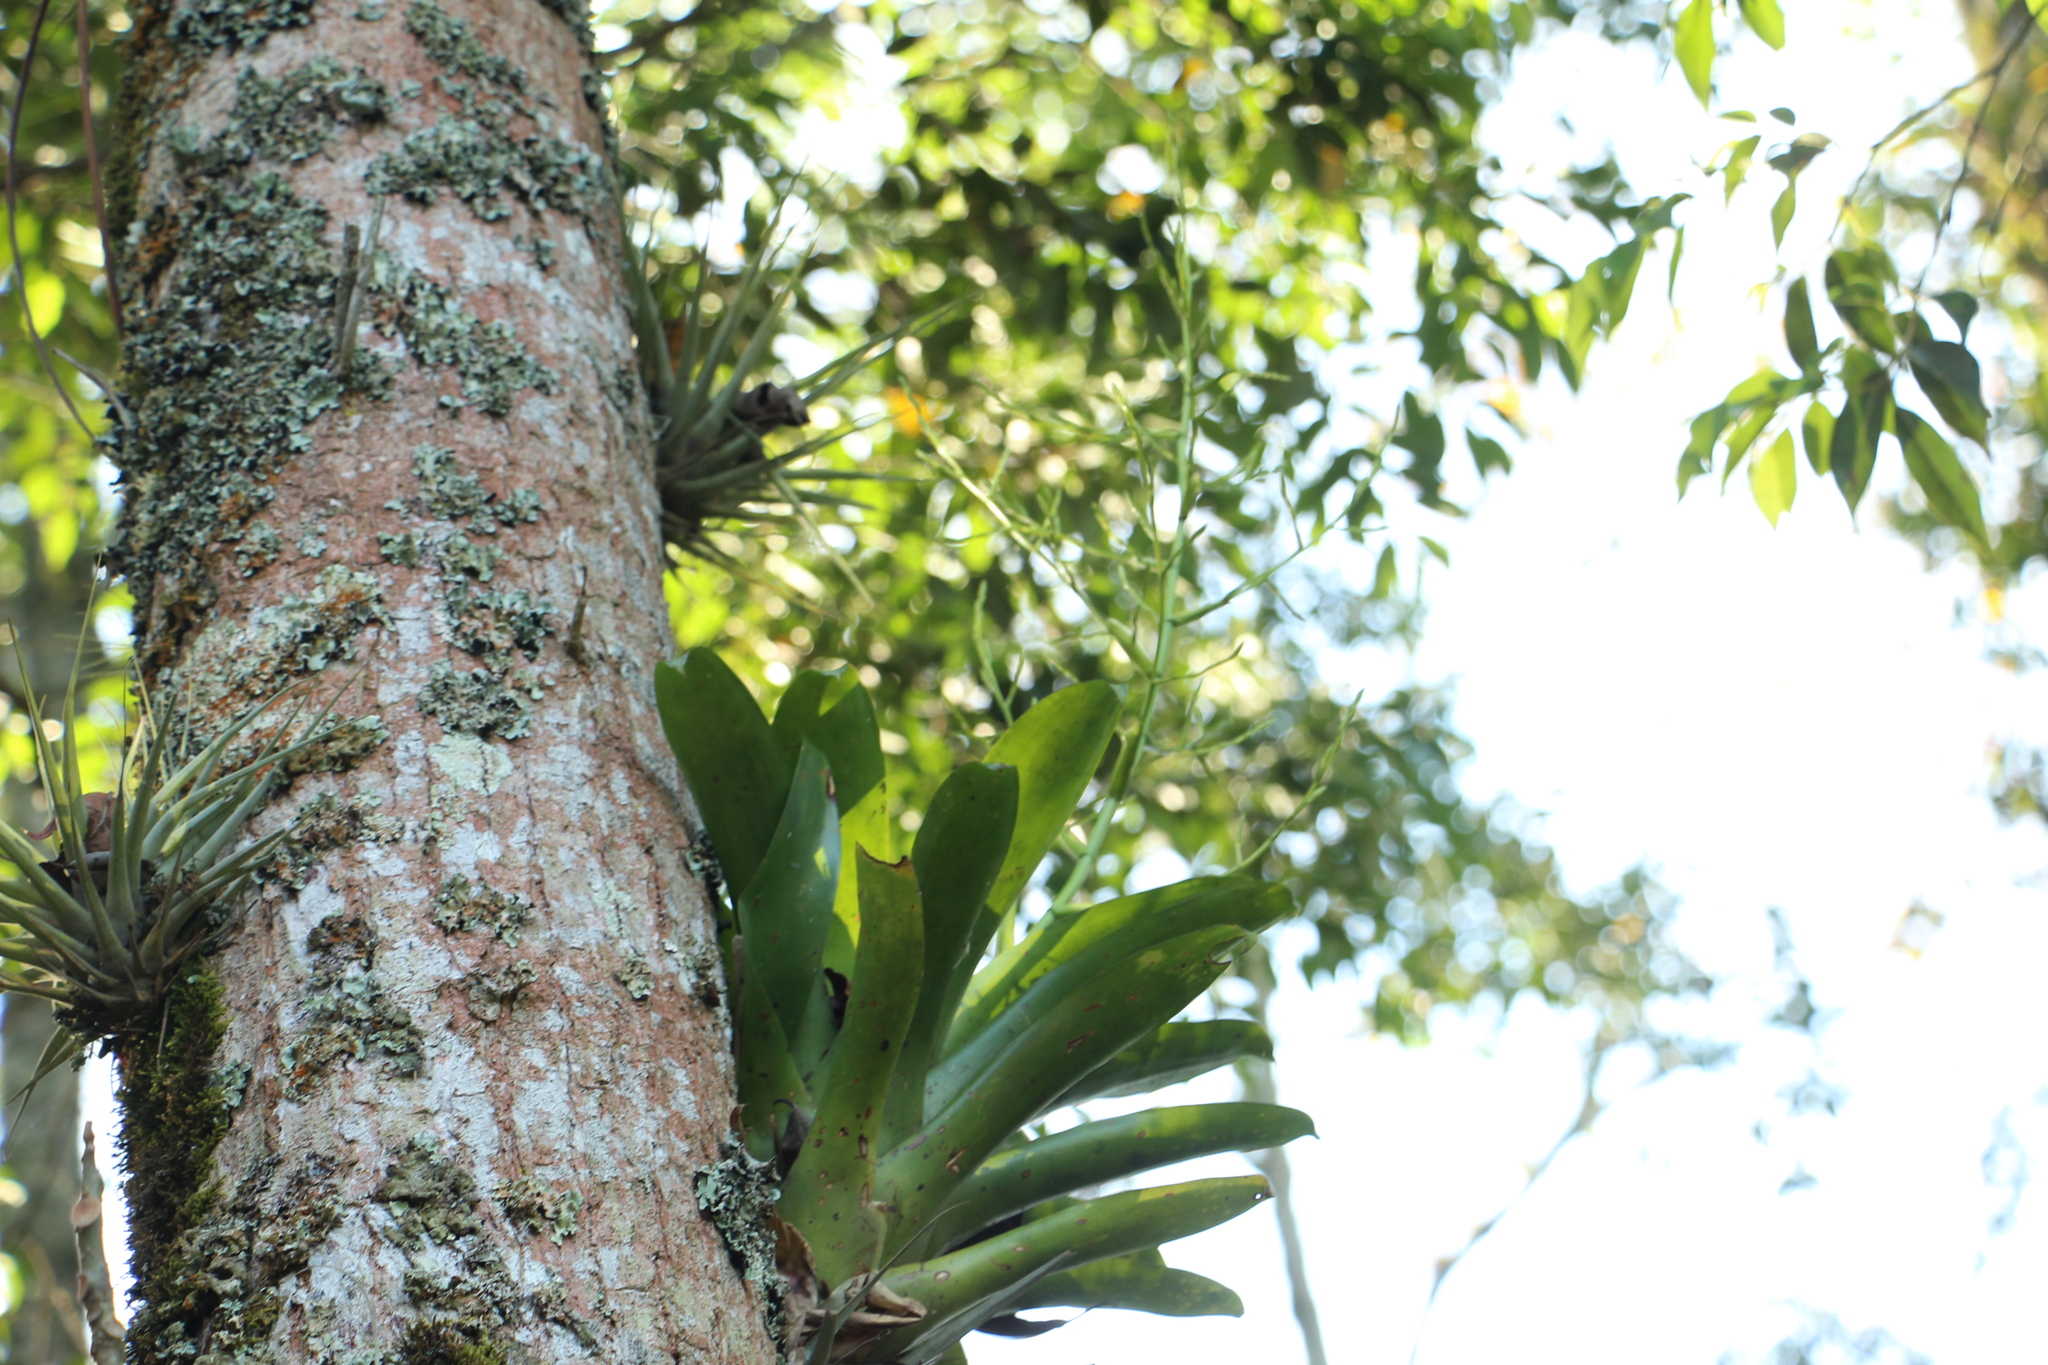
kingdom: Plantae
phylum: Tracheophyta
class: Liliopsida
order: Poales
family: Bromeliaceae
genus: Racinaea
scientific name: Racinaea tenuispica
